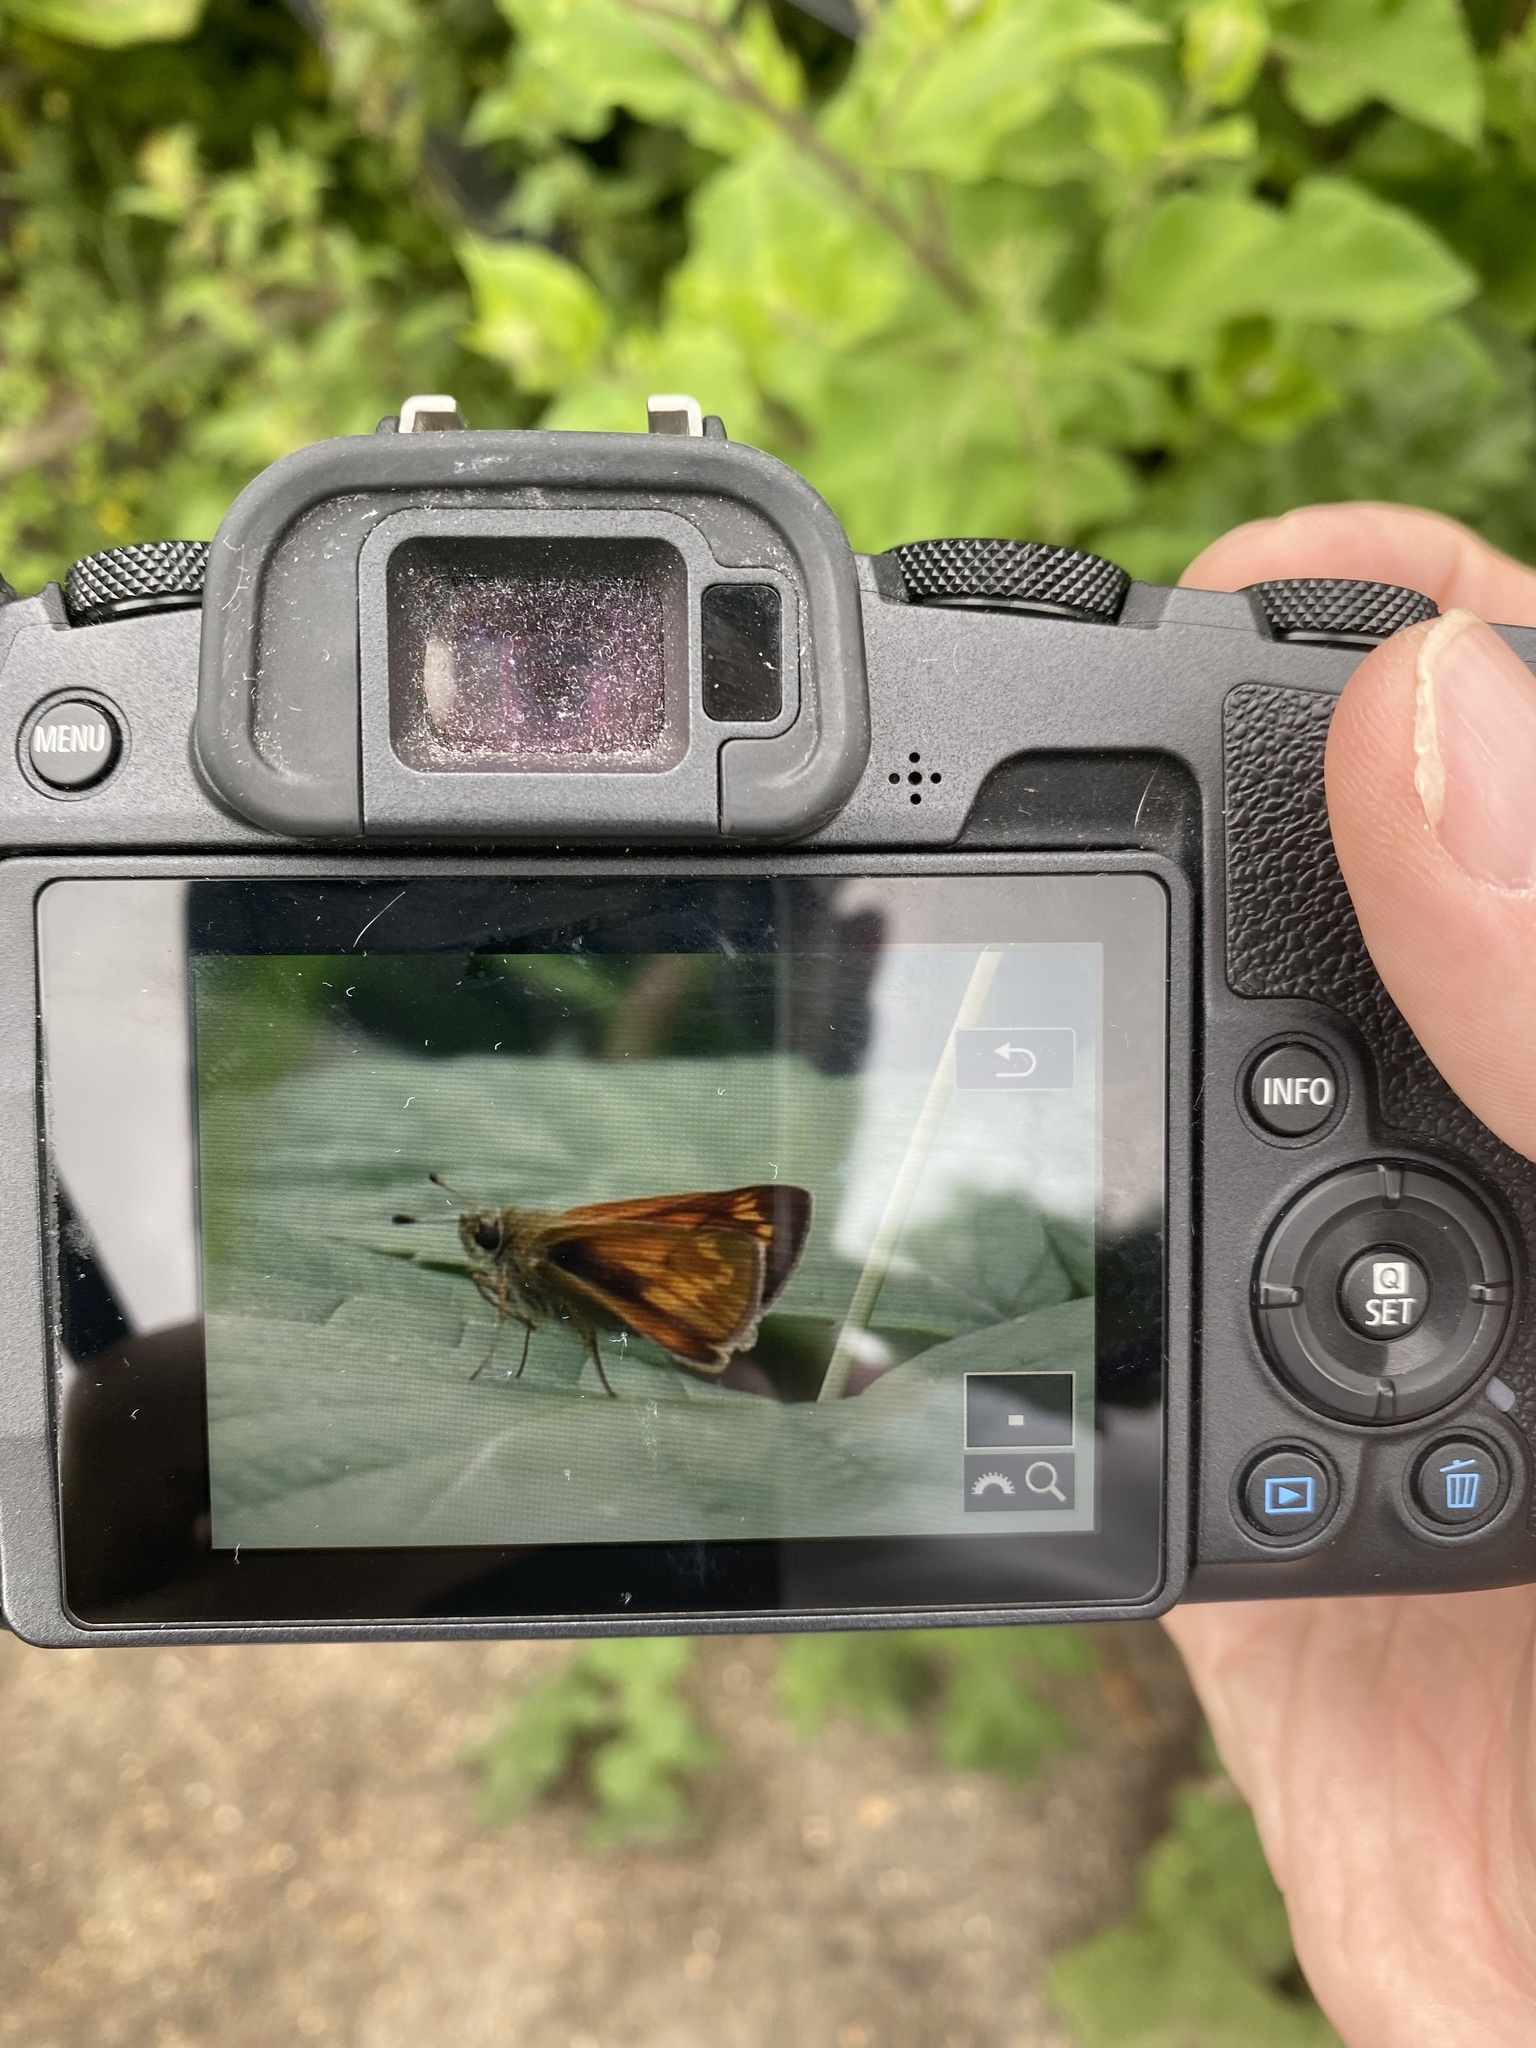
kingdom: Animalia
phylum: Arthropoda
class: Insecta
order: Lepidoptera
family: Hesperiidae
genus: Ochlodes
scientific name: Ochlodes venata
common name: Large skipper
